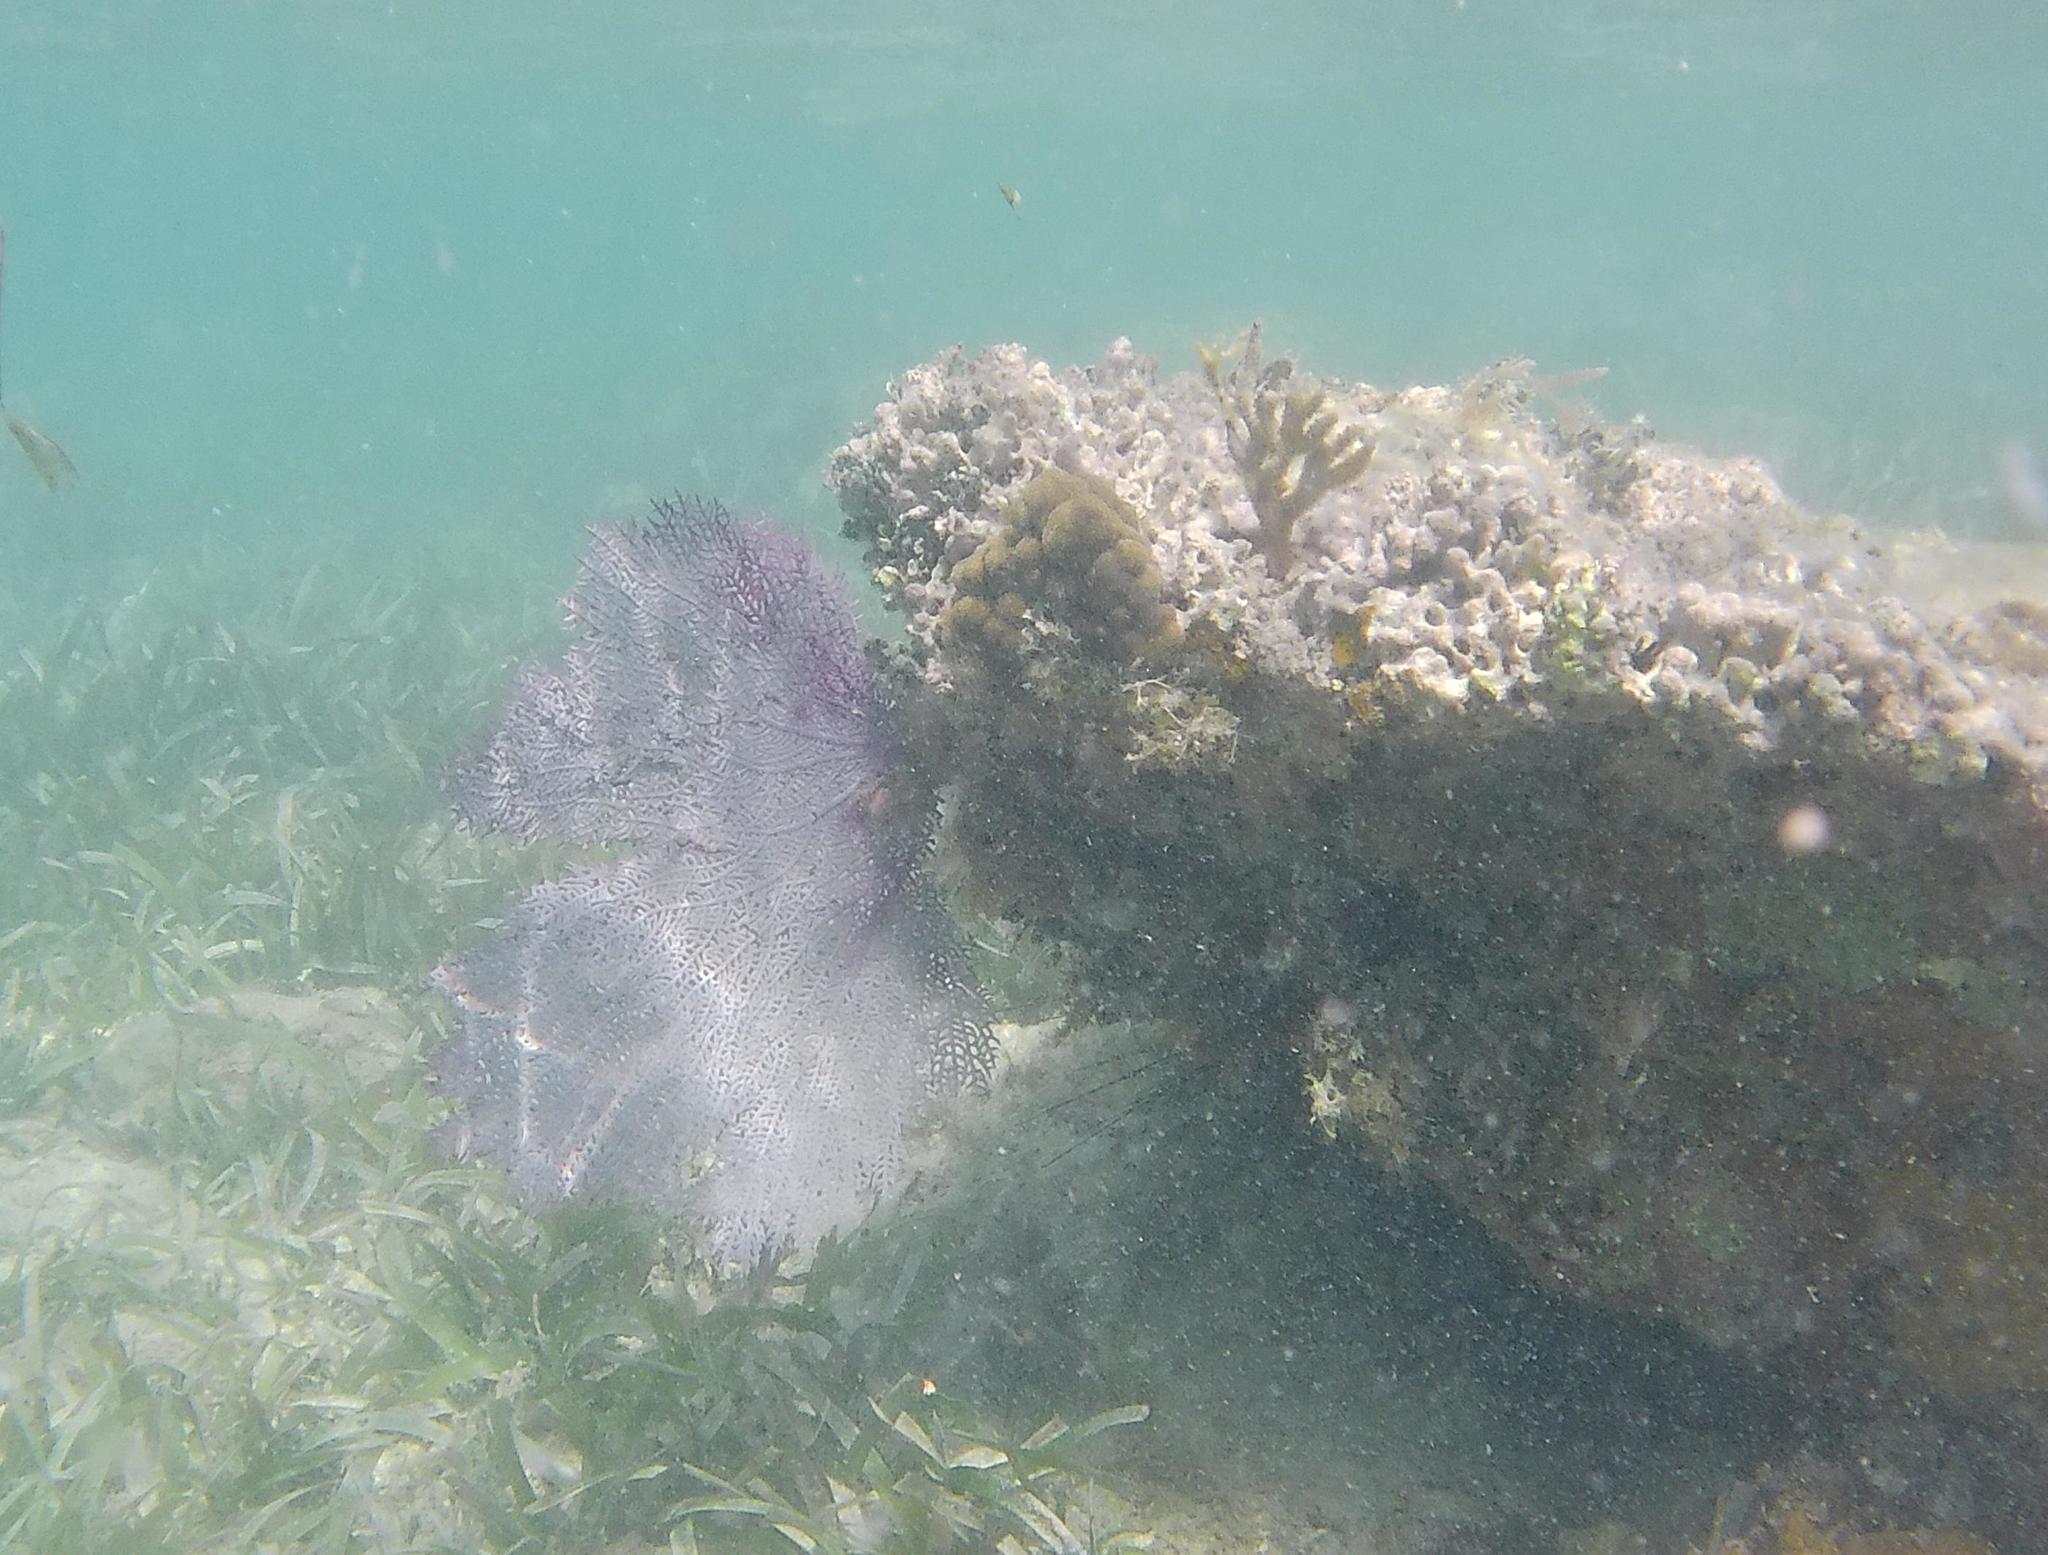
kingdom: Animalia
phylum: Cnidaria
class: Anthozoa
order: Malacalcyonacea
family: Gorgoniidae
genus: Gorgonia
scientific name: Gorgonia ventalina
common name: Common sea fan
